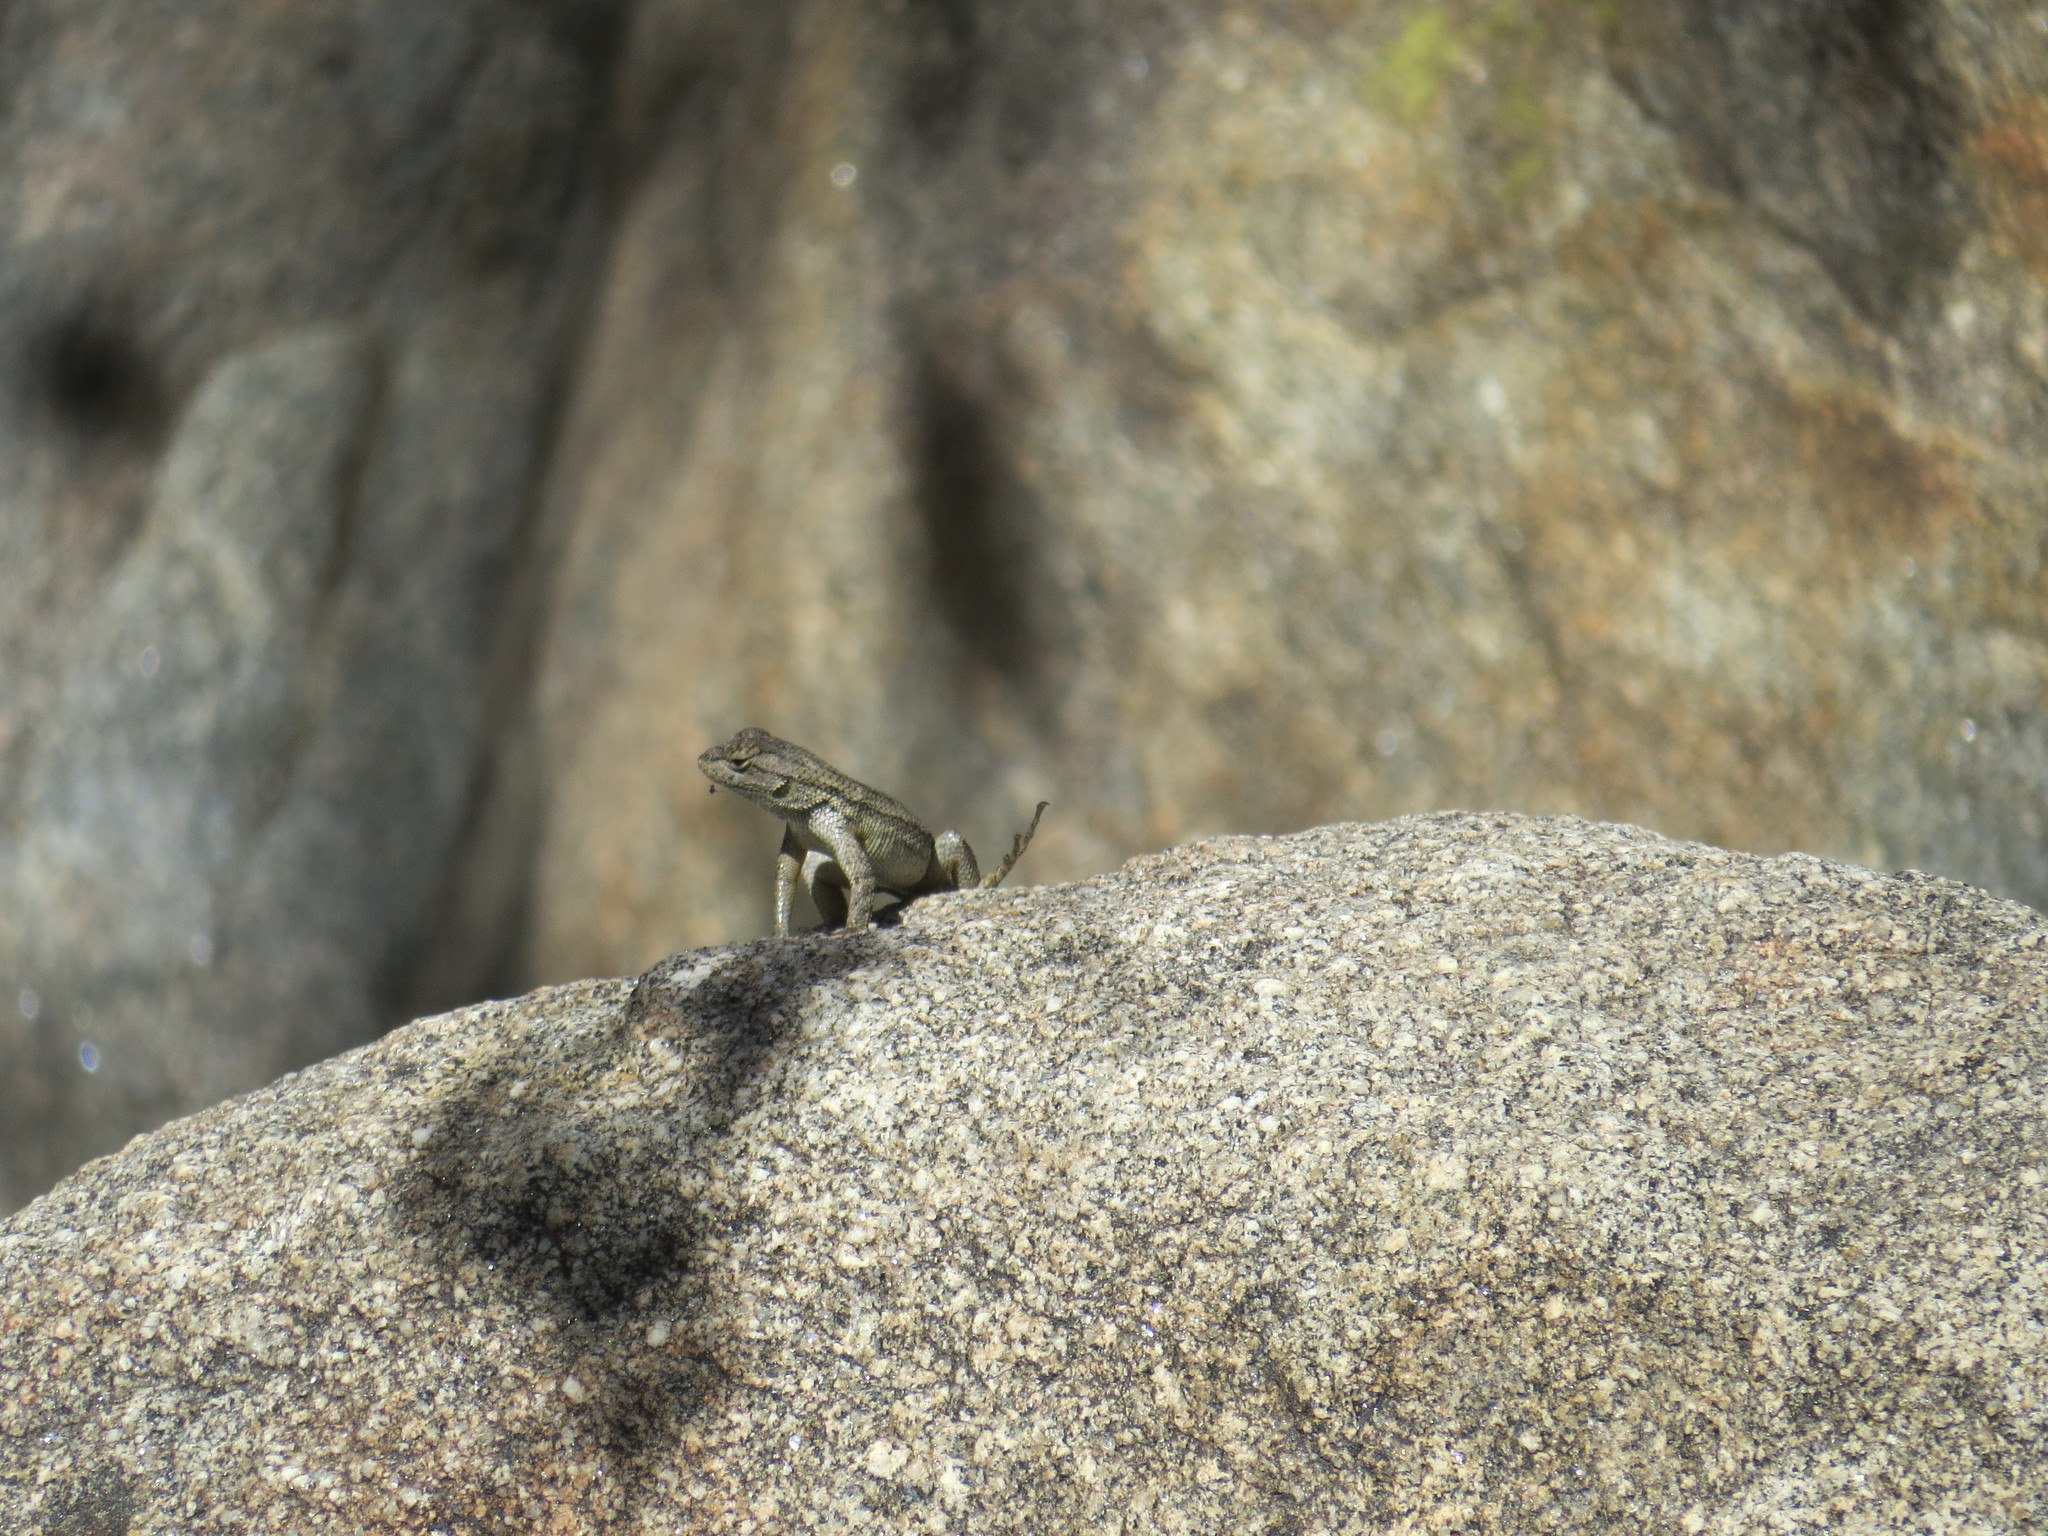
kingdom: Animalia
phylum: Chordata
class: Squamata
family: Phrynosomatidae
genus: Sceloporus
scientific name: Sceloporus occidentalis
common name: Western fence lizard
